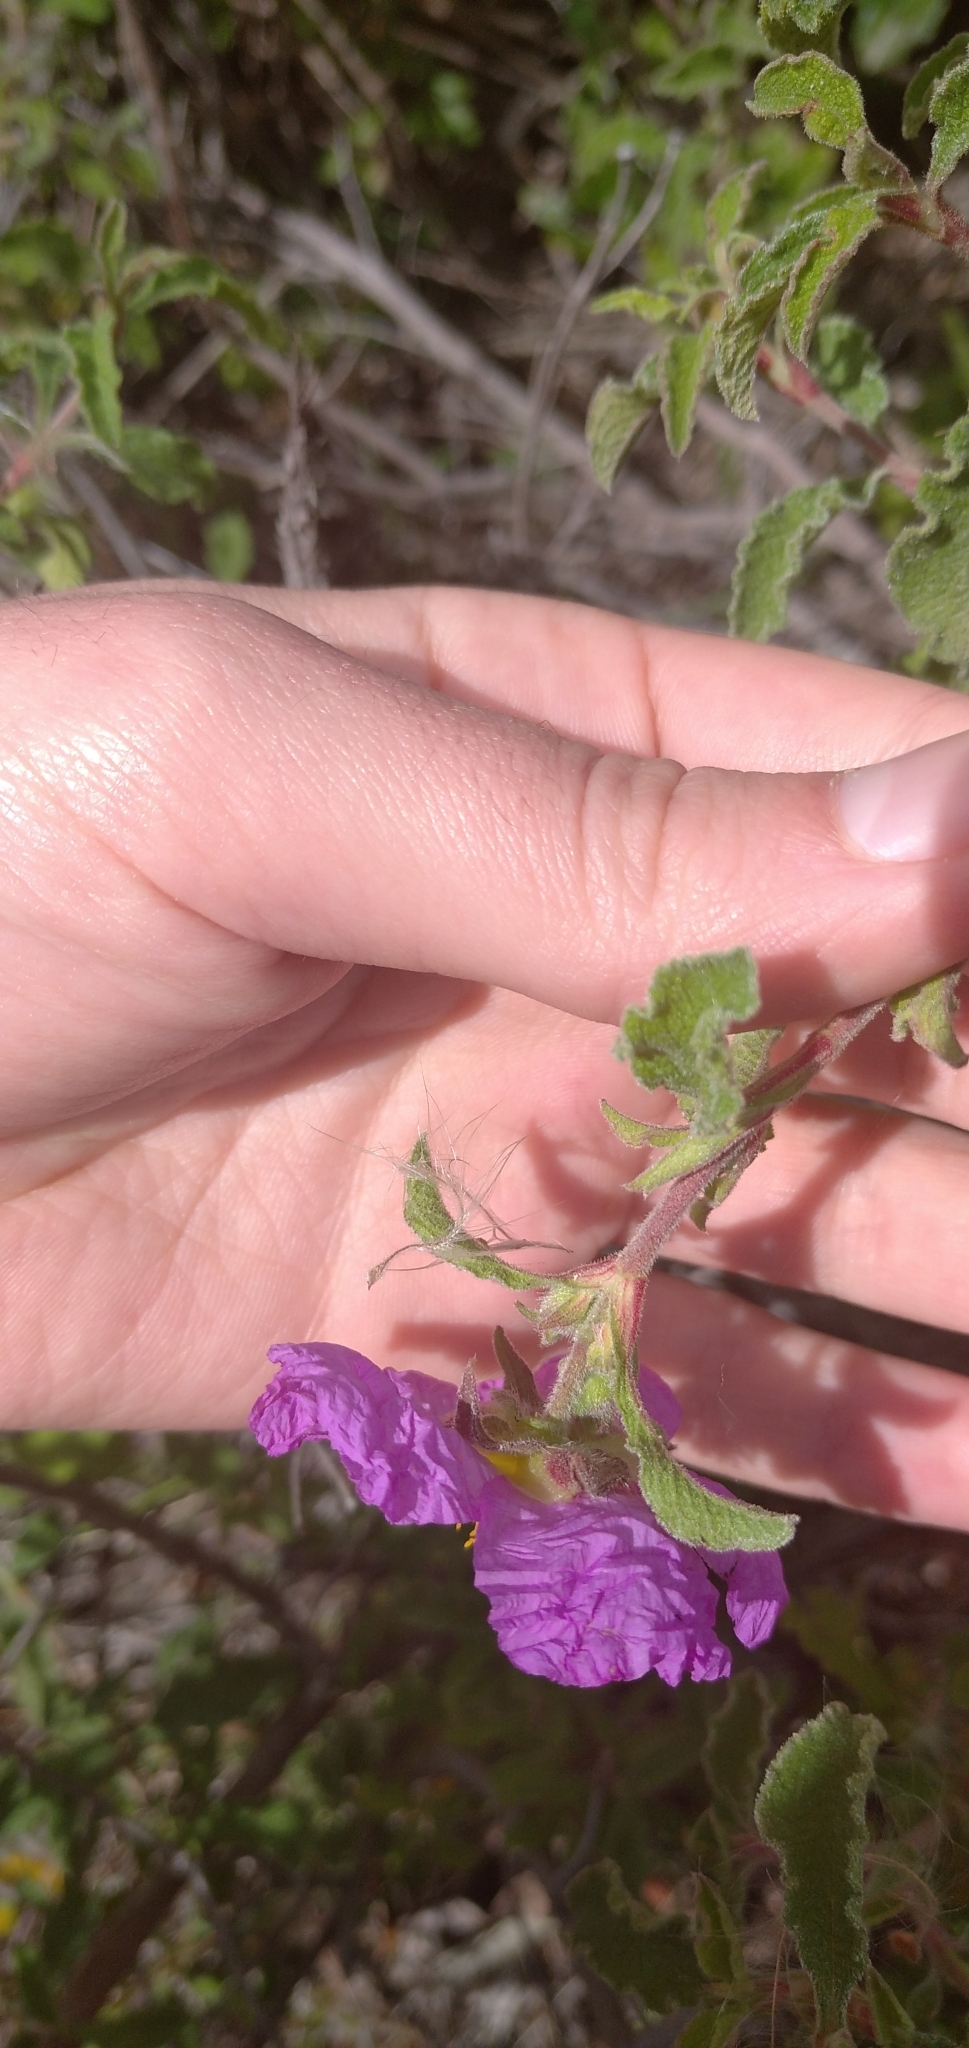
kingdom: Plantae
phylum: Tracheophyta
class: Magnoliopsida
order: Malvales
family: Cistaceae
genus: Cistus
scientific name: Cistus creticus
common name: Cretan rockrose
